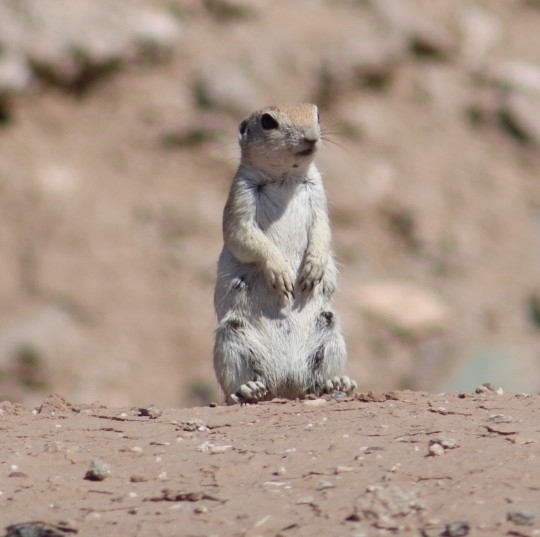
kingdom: Animalia
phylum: Chordata
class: Mammalia
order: Rodentia
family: Sciuridae
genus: Xerospermophilus
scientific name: Xerospermophilus tereticaudus
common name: Round-tailed ground squirrel
